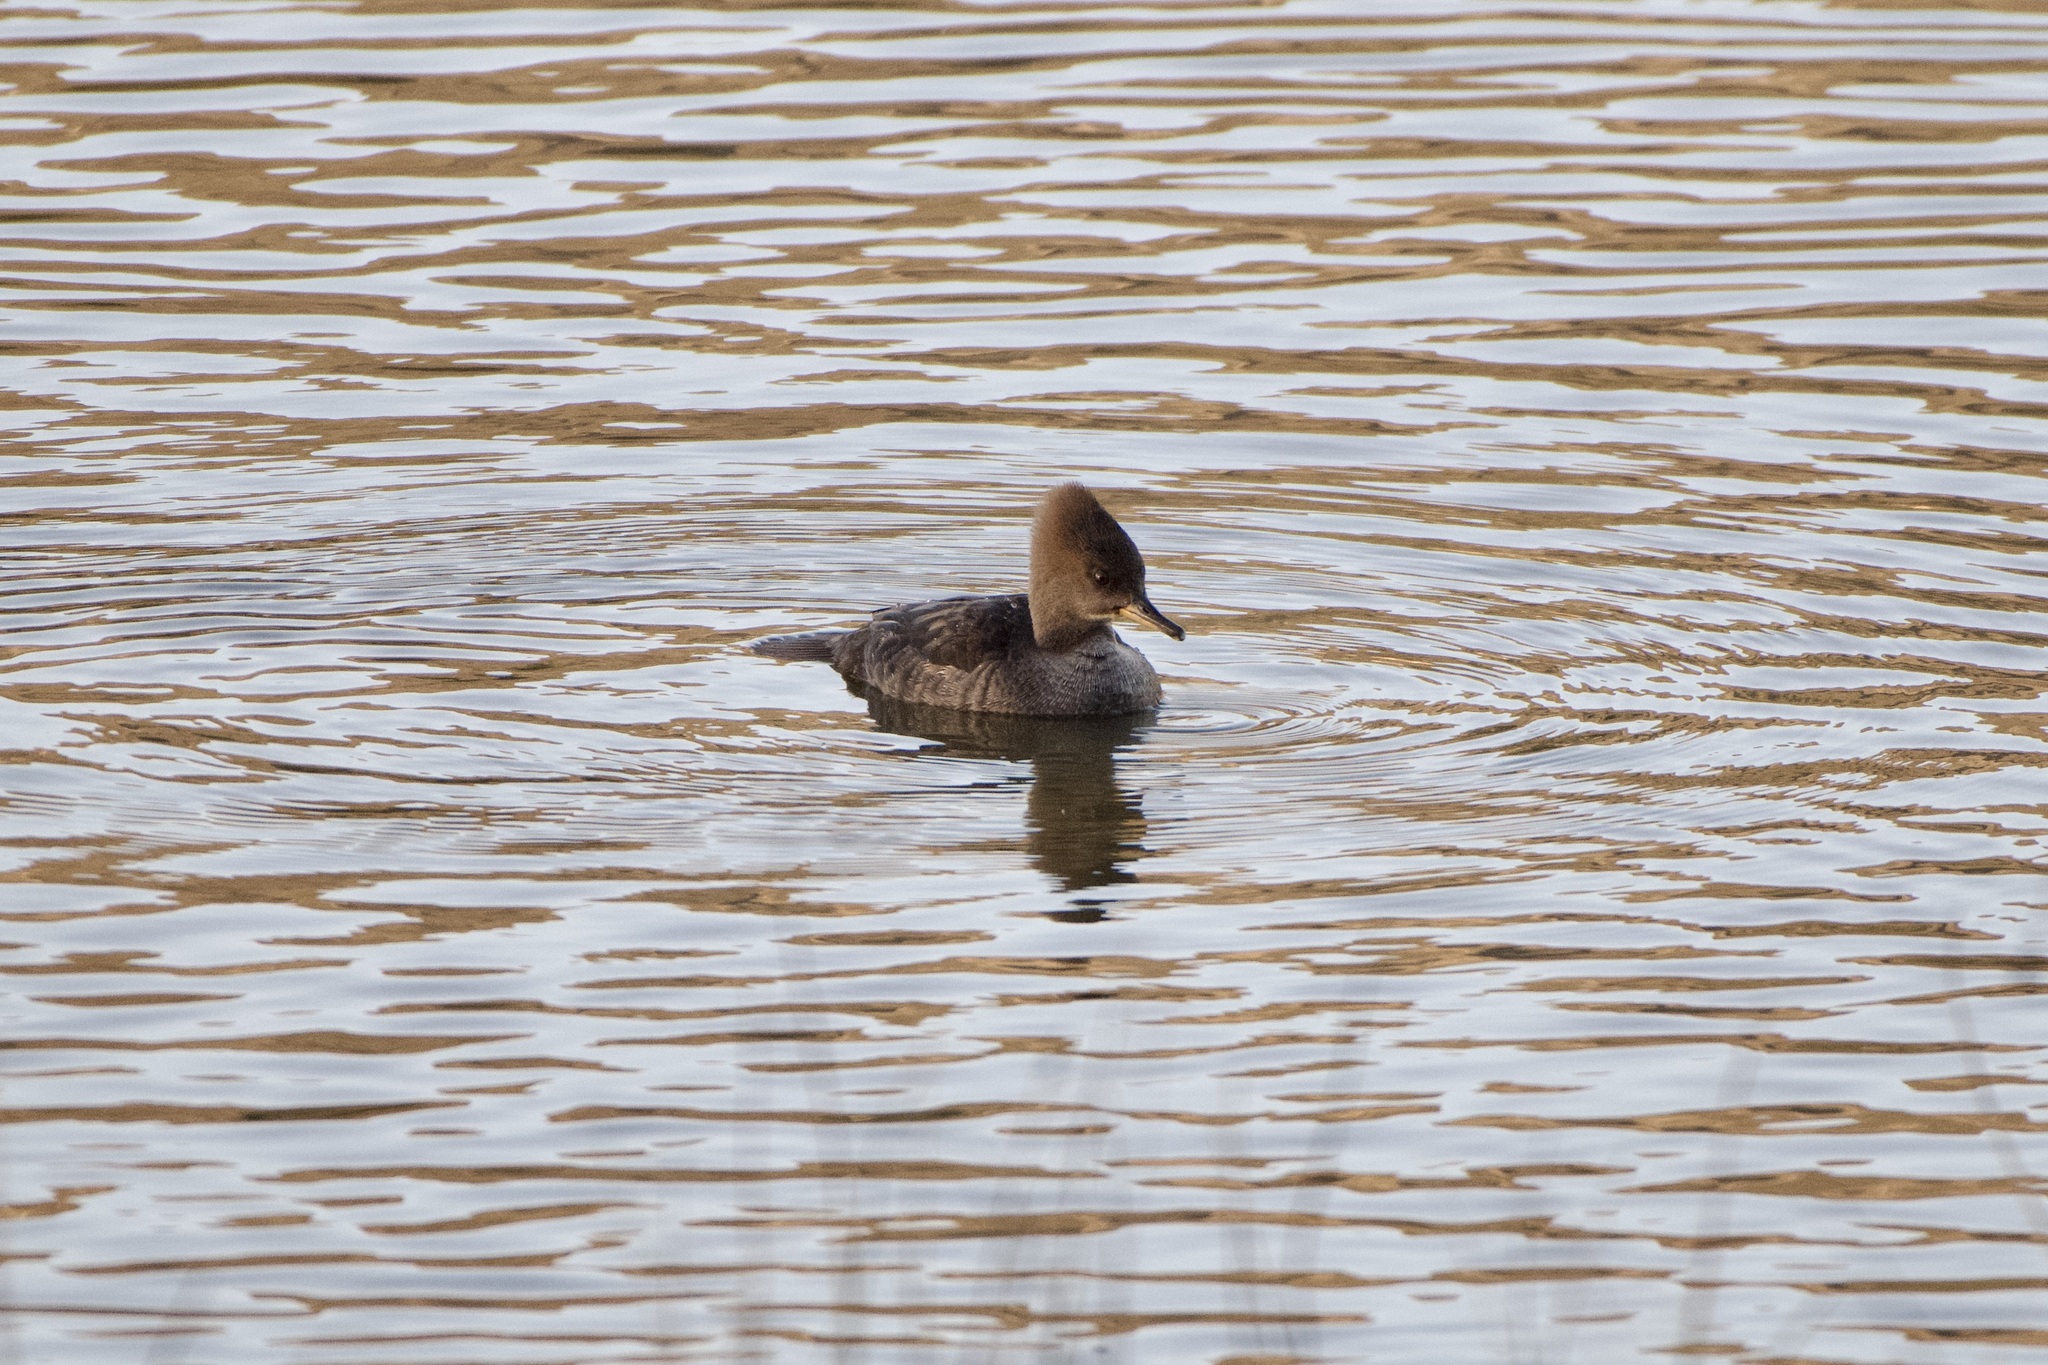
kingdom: Animalia
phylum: Chordata
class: Aves
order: Anseriformes
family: Anatidae
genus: Lophodytes
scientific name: Lophodytes cucullatus
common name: Hooded merganser
